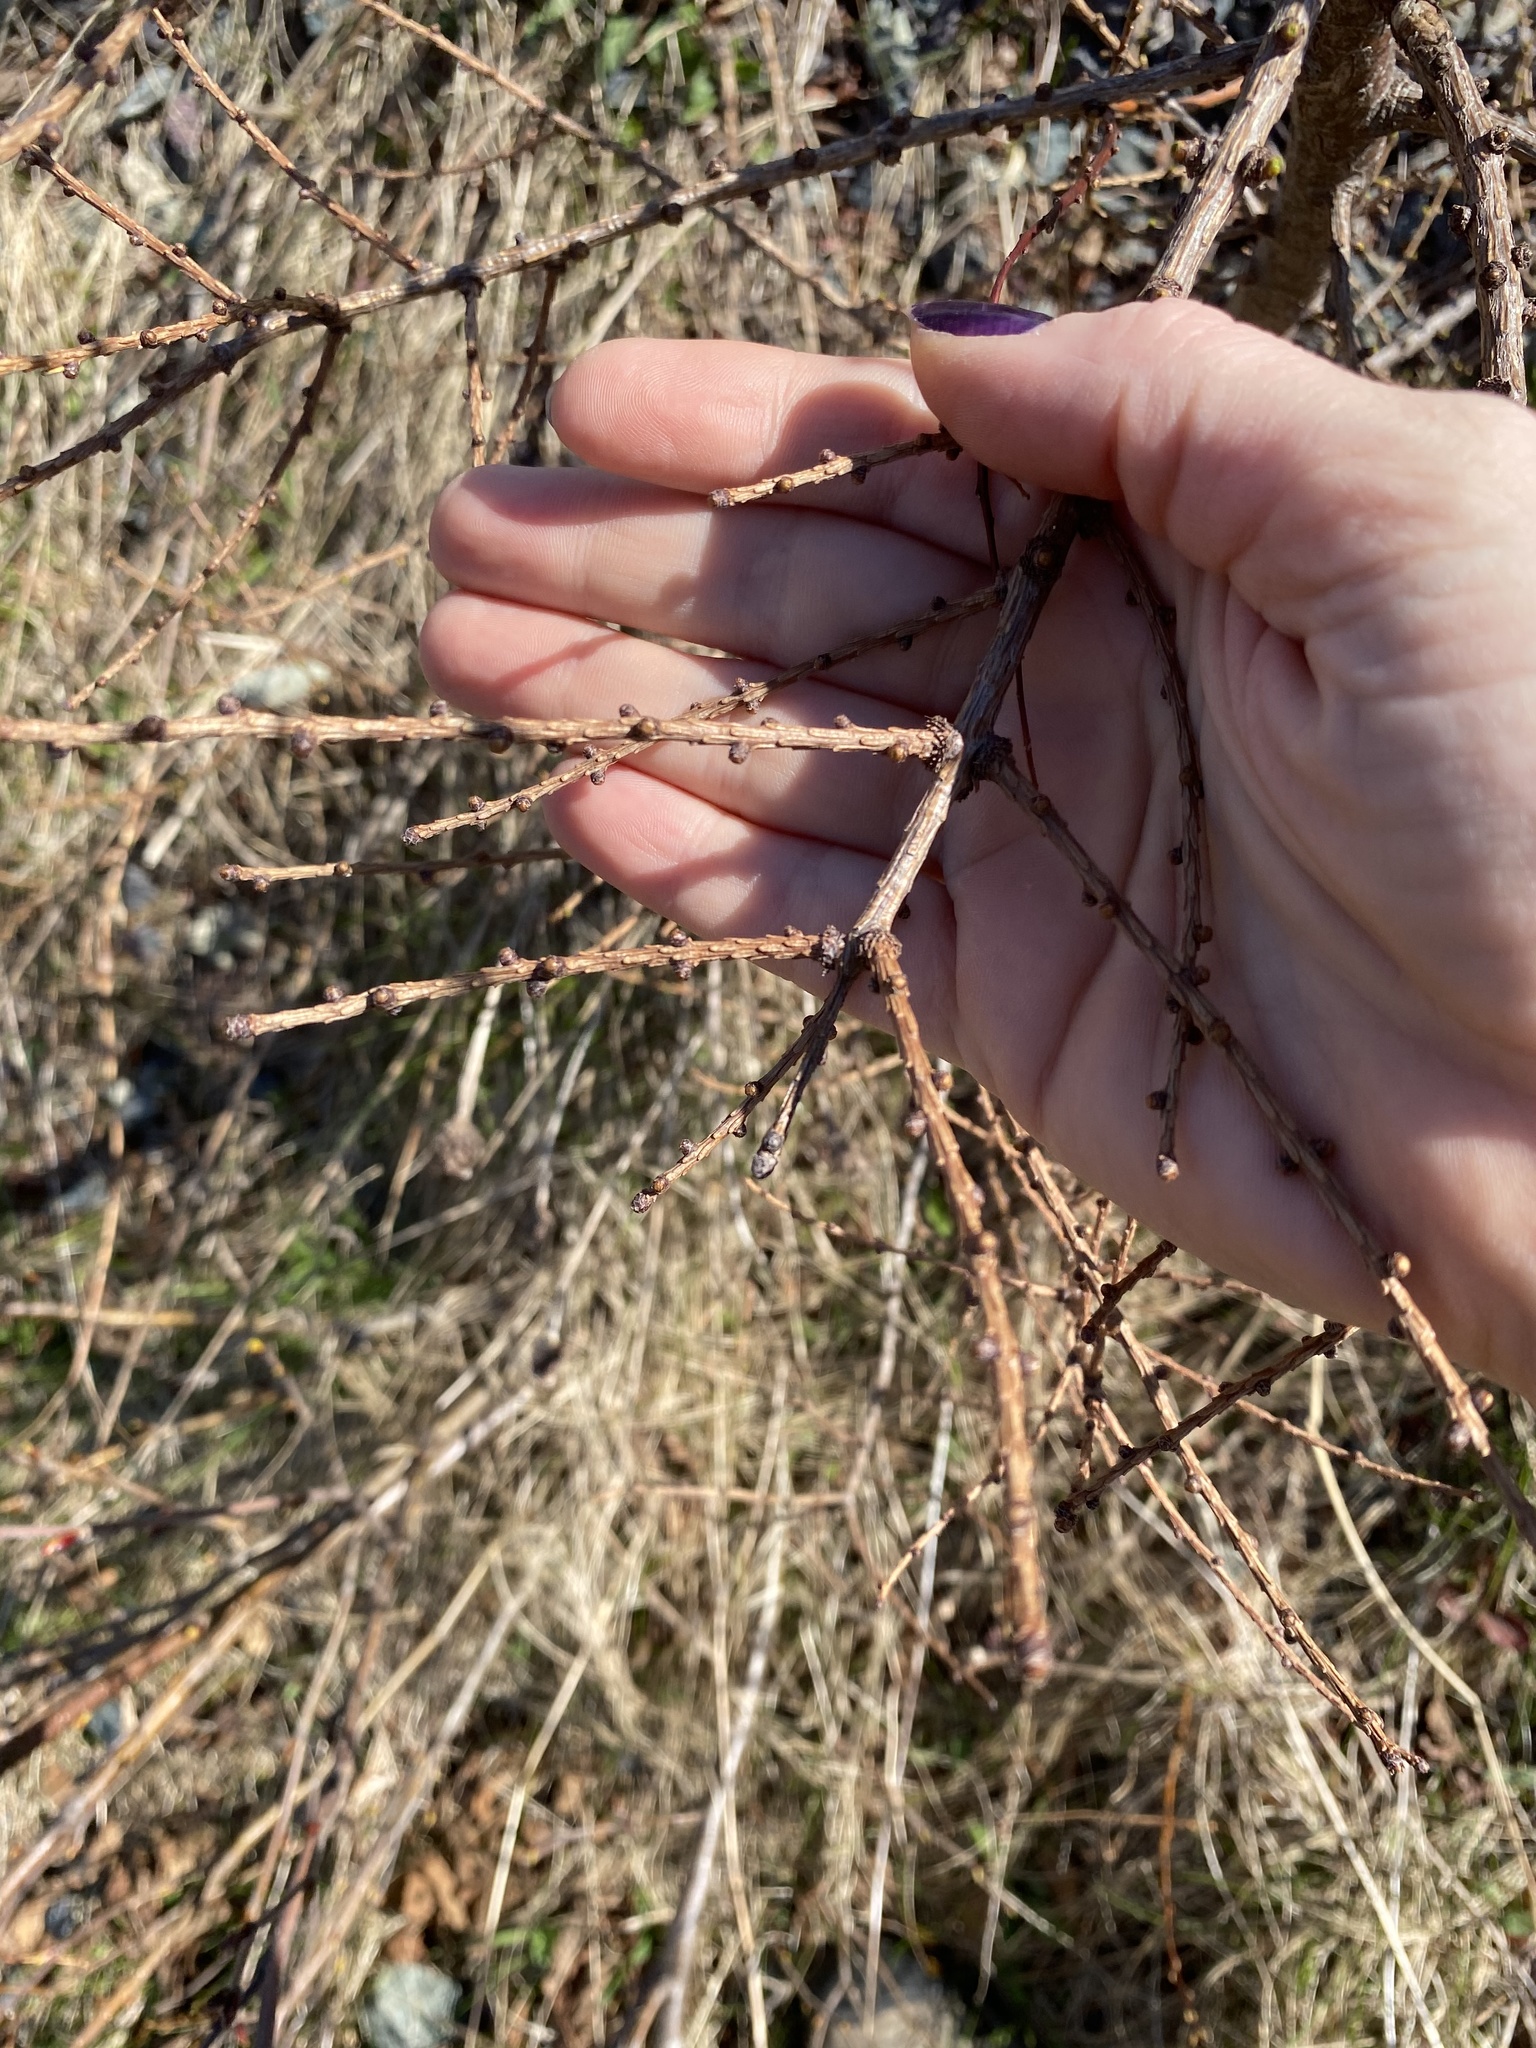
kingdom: Plantae
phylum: Tracheophyta
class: Pinopsida
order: Pinales
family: Pinaceae
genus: Larix
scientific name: Larix laricina
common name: American larch
